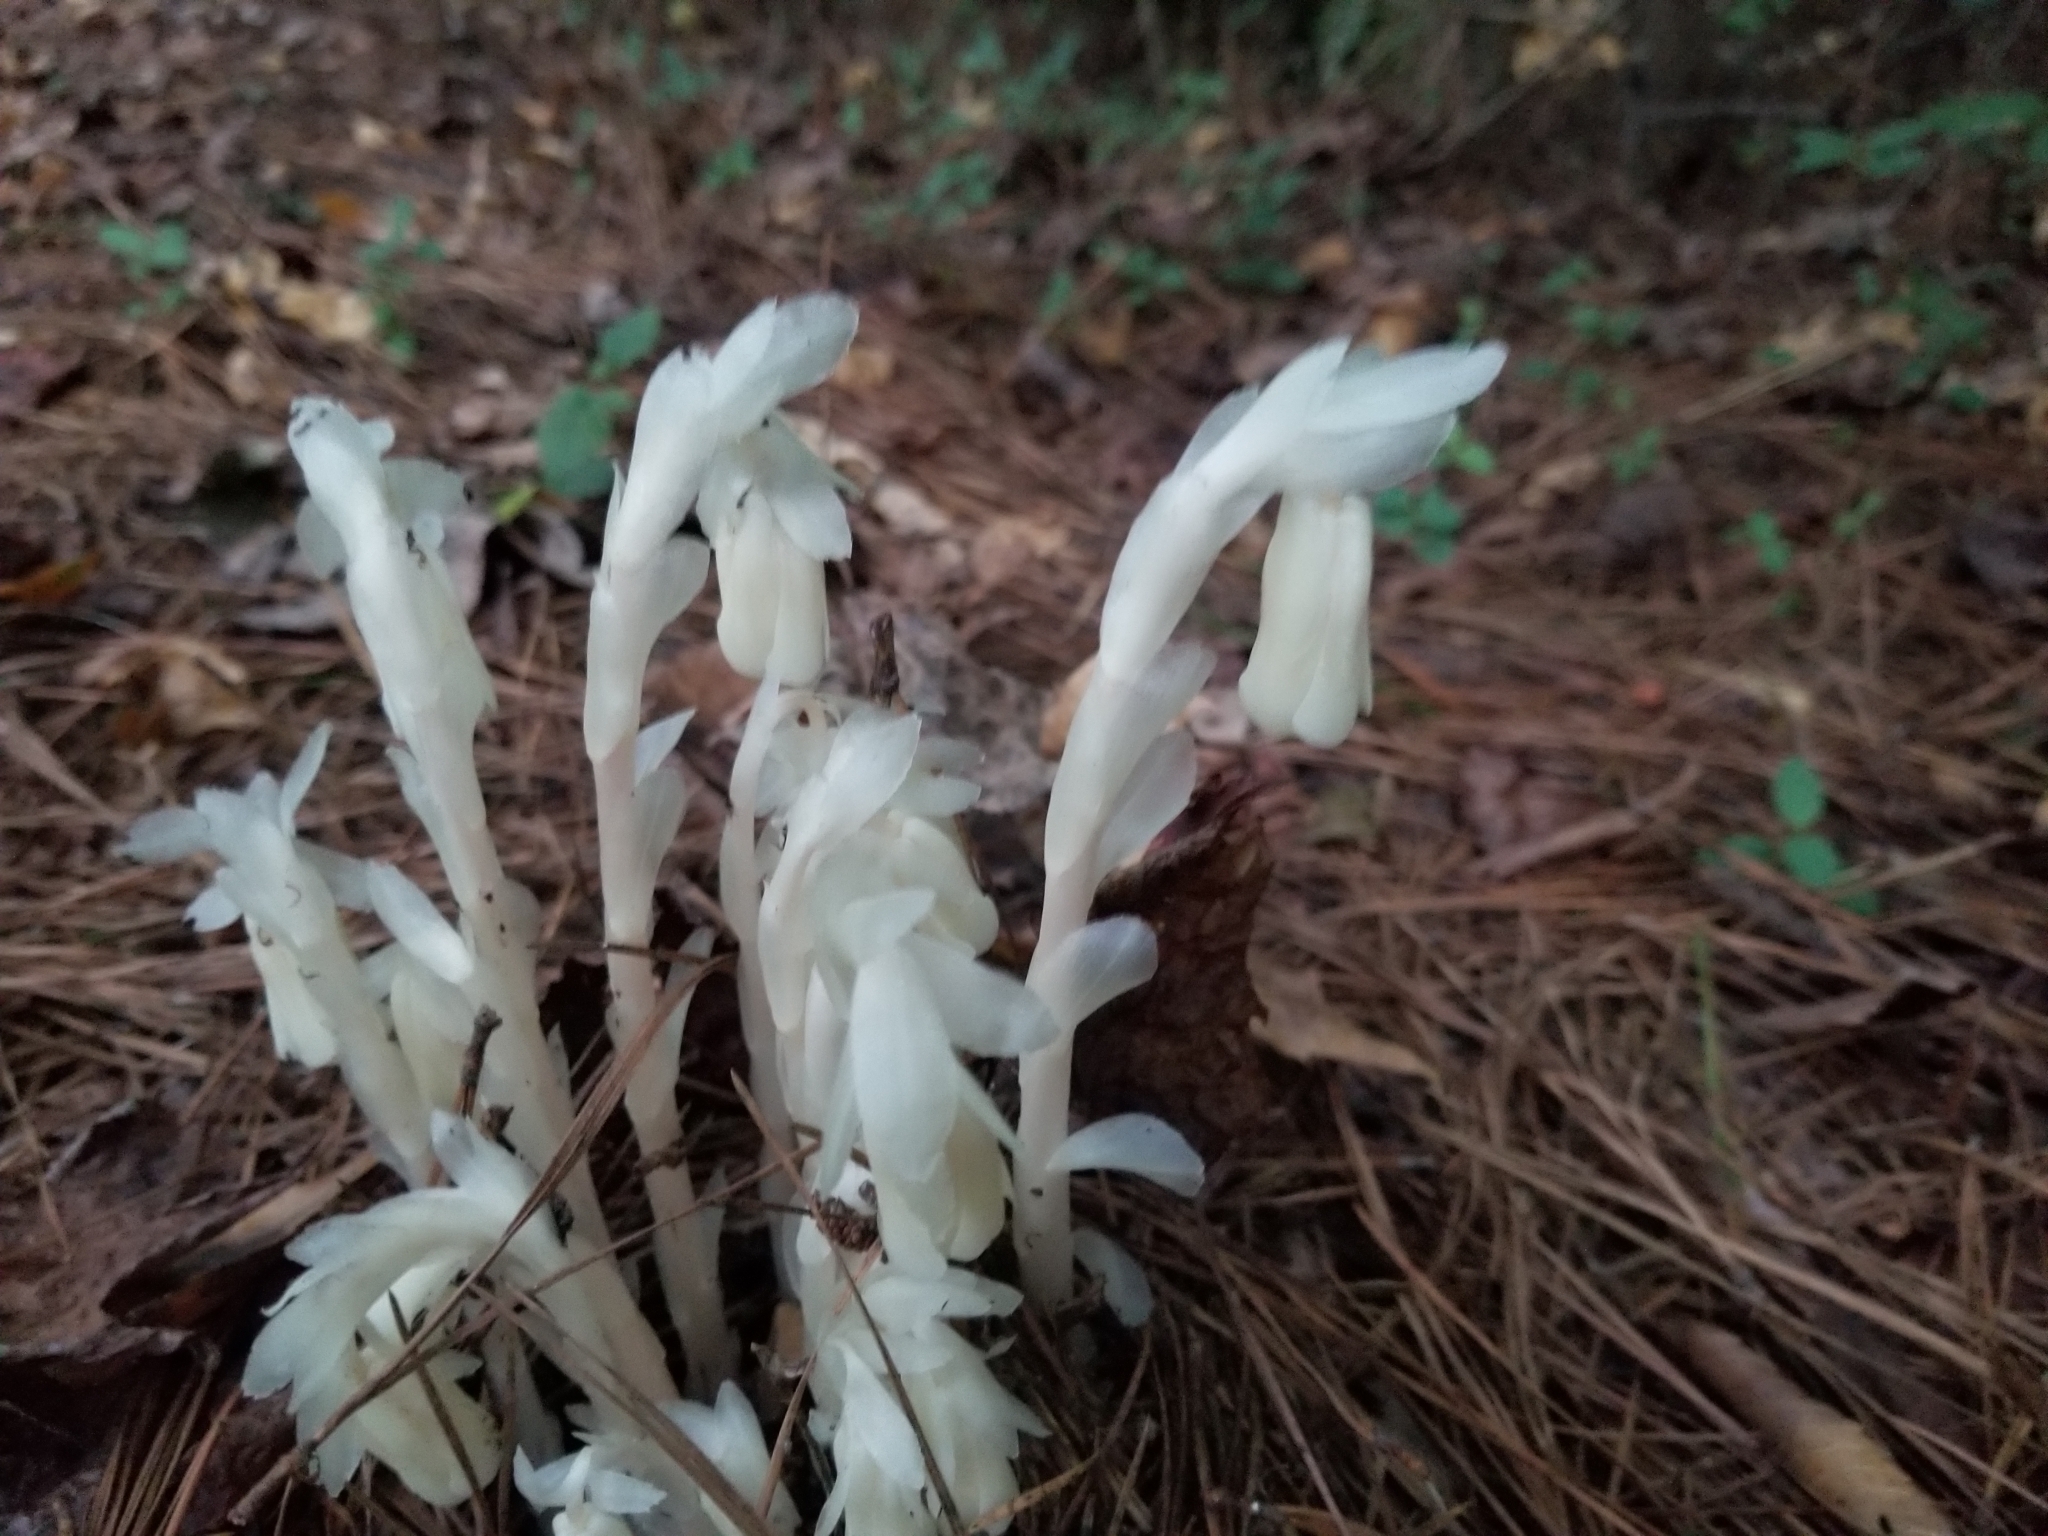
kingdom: Plantae
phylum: Tracheophyta
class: Magnoliopsida
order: Ericales
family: Ericaceae
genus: Monotropa
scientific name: Monotropa uniflora
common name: Convulsion root
